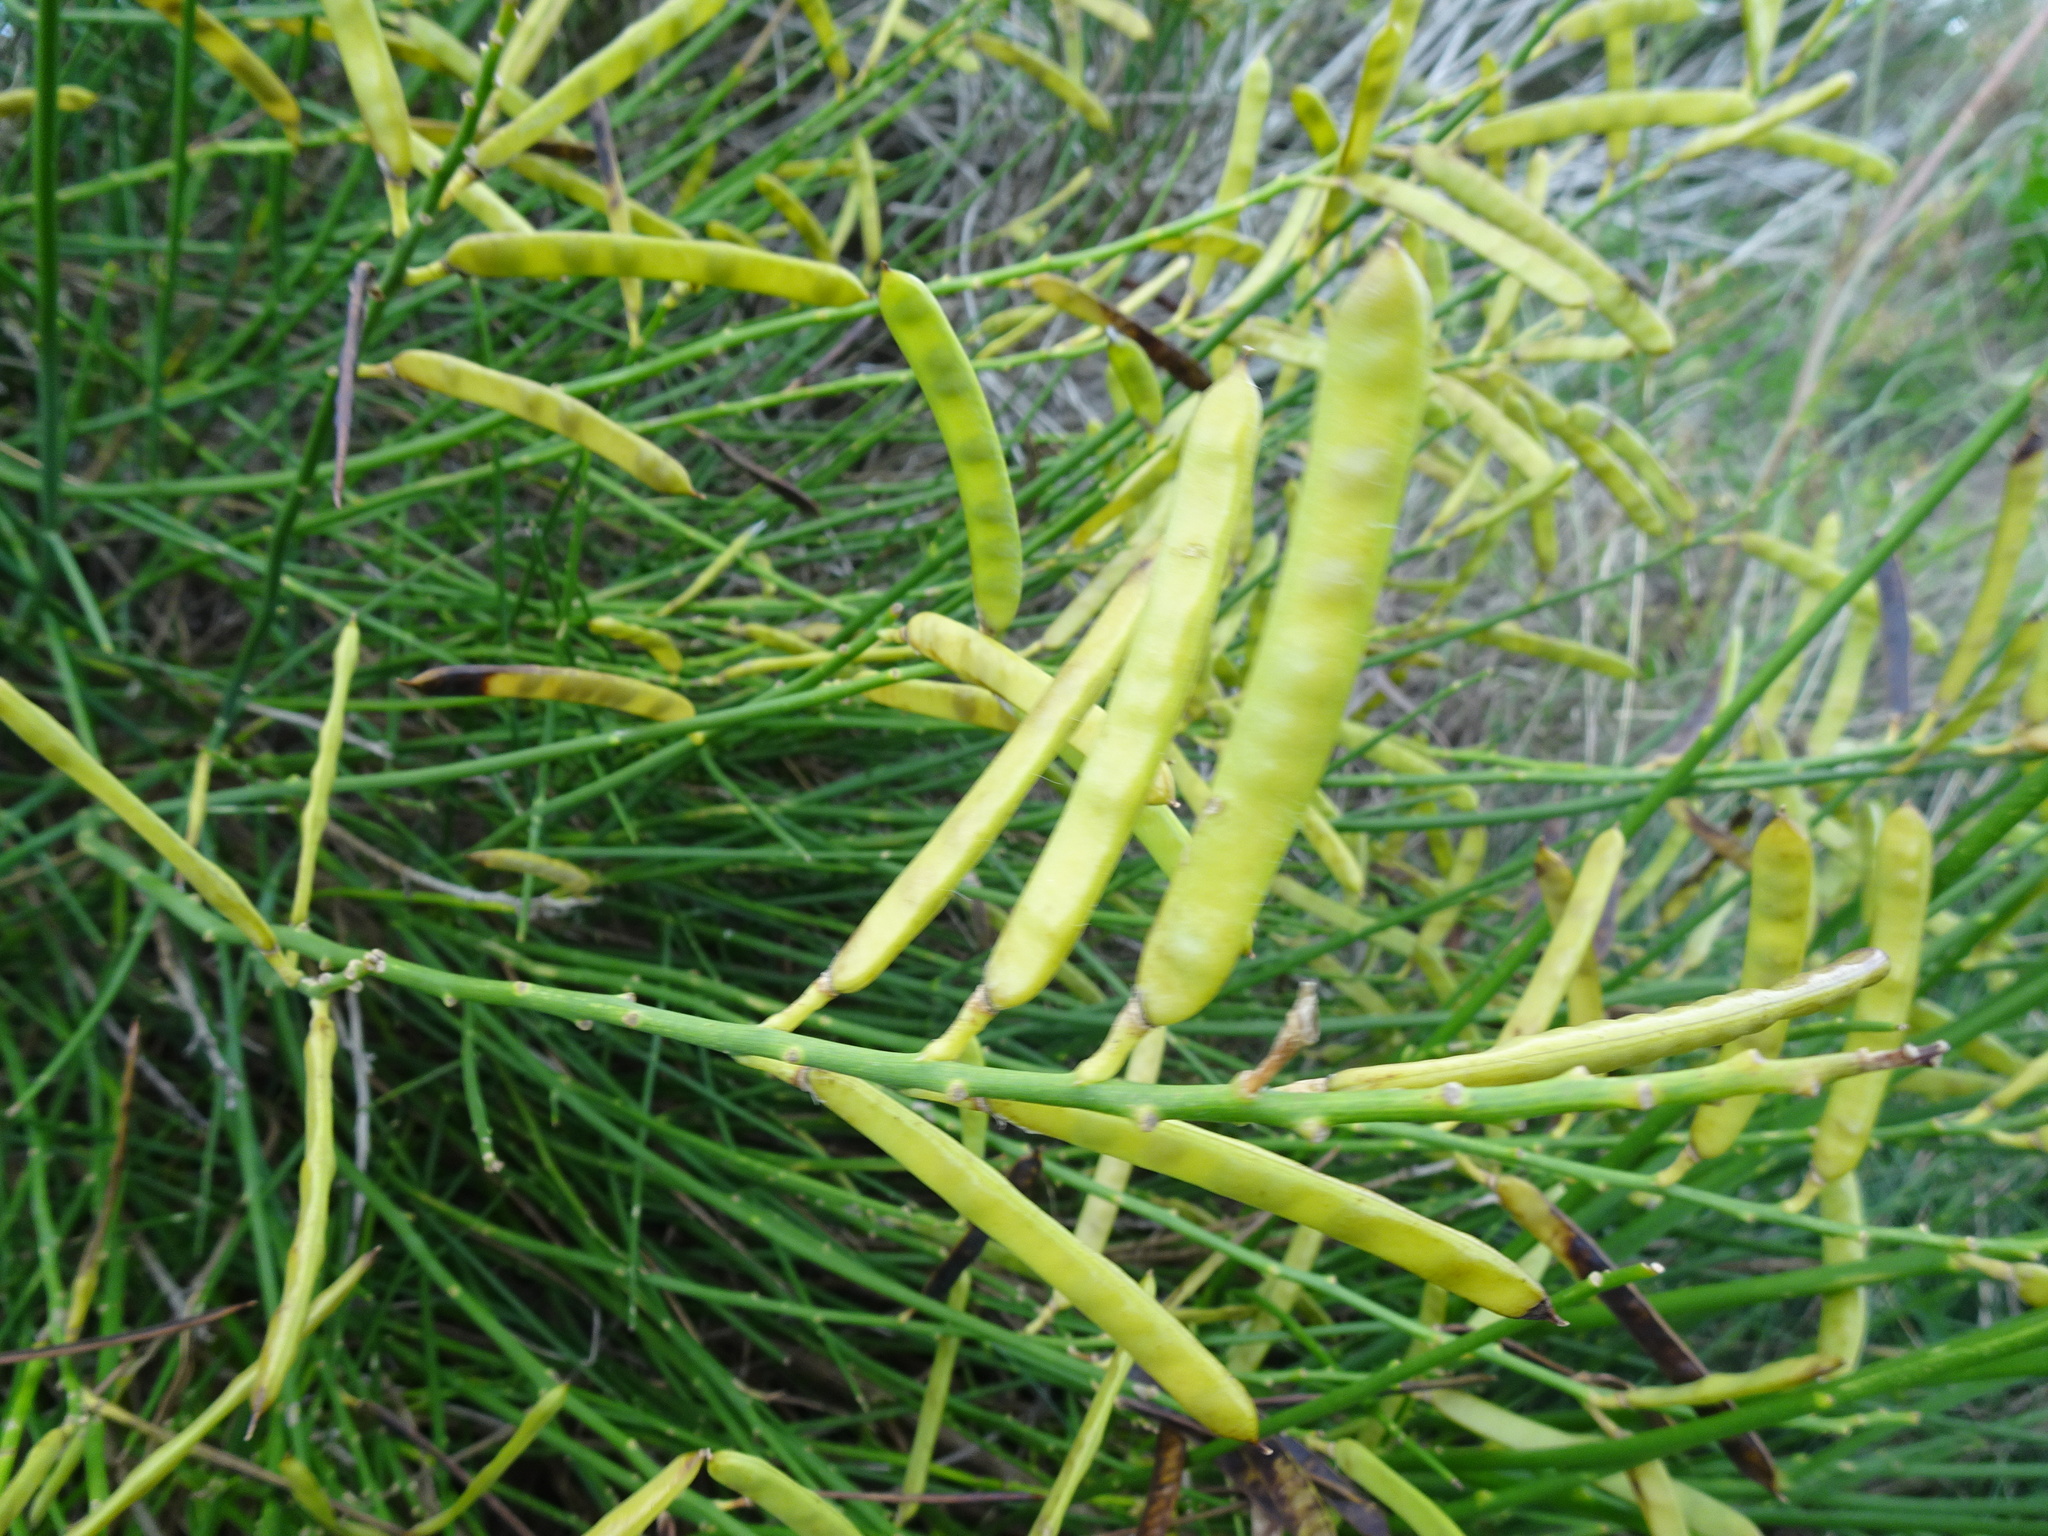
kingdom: Plantae
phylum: Tracheophyta
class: Magnoliopsida
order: Fabales
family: Fabaceae
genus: Spartium
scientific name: Spartium junceum
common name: Spanish broom
